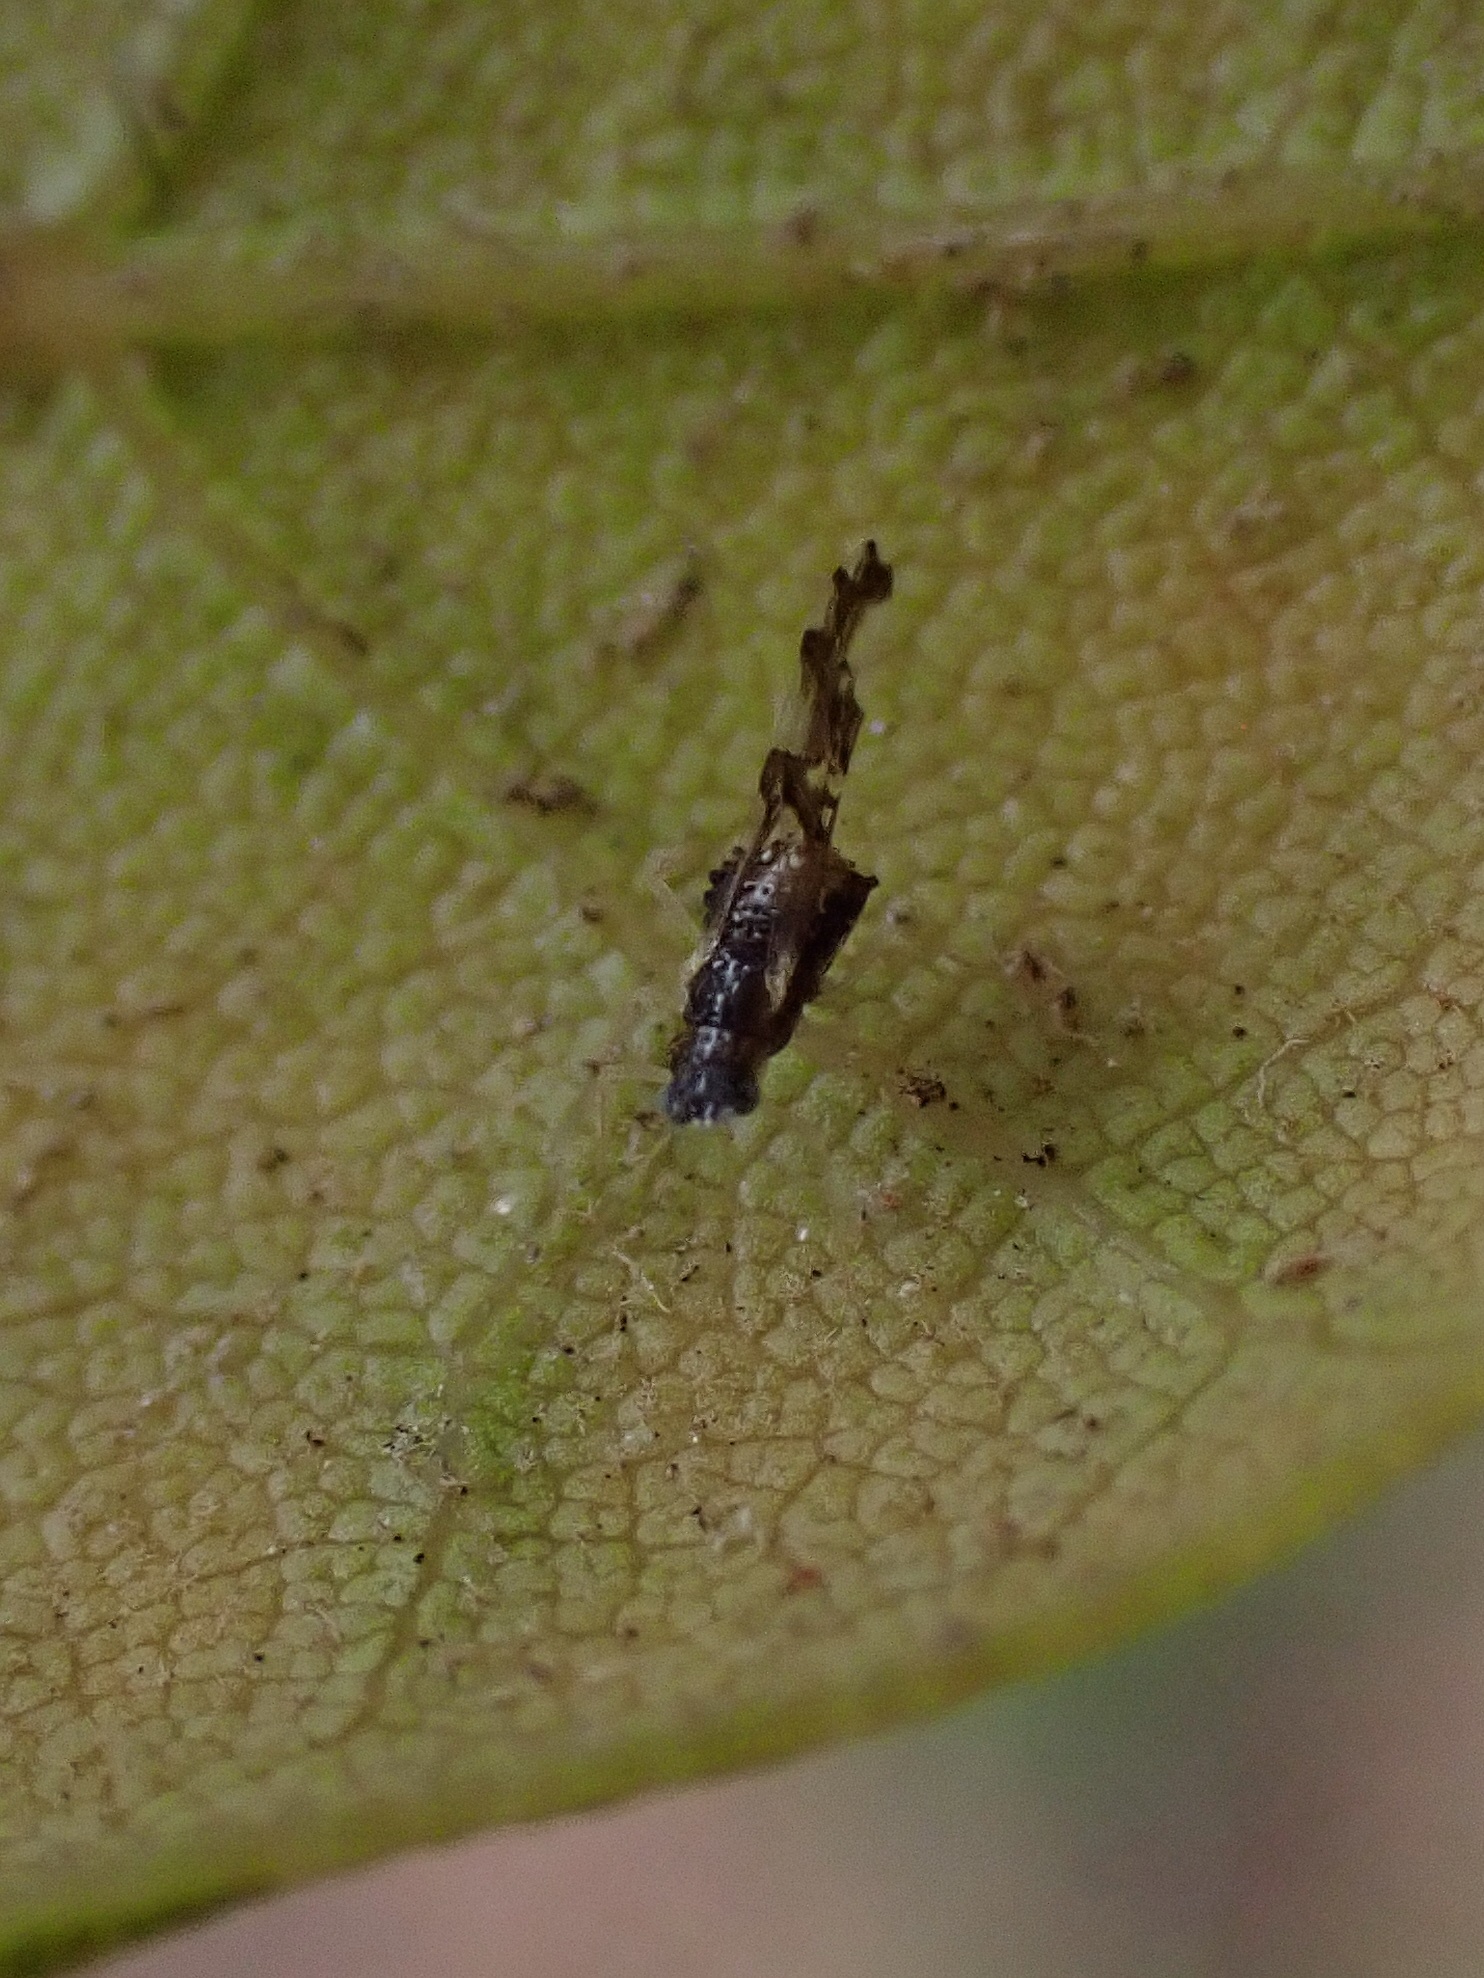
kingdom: Animalia
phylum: Arthropoda
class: Insecta
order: Hemiptera
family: Aphididae
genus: Myzocallis
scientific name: Myzocallis agrifolicola
